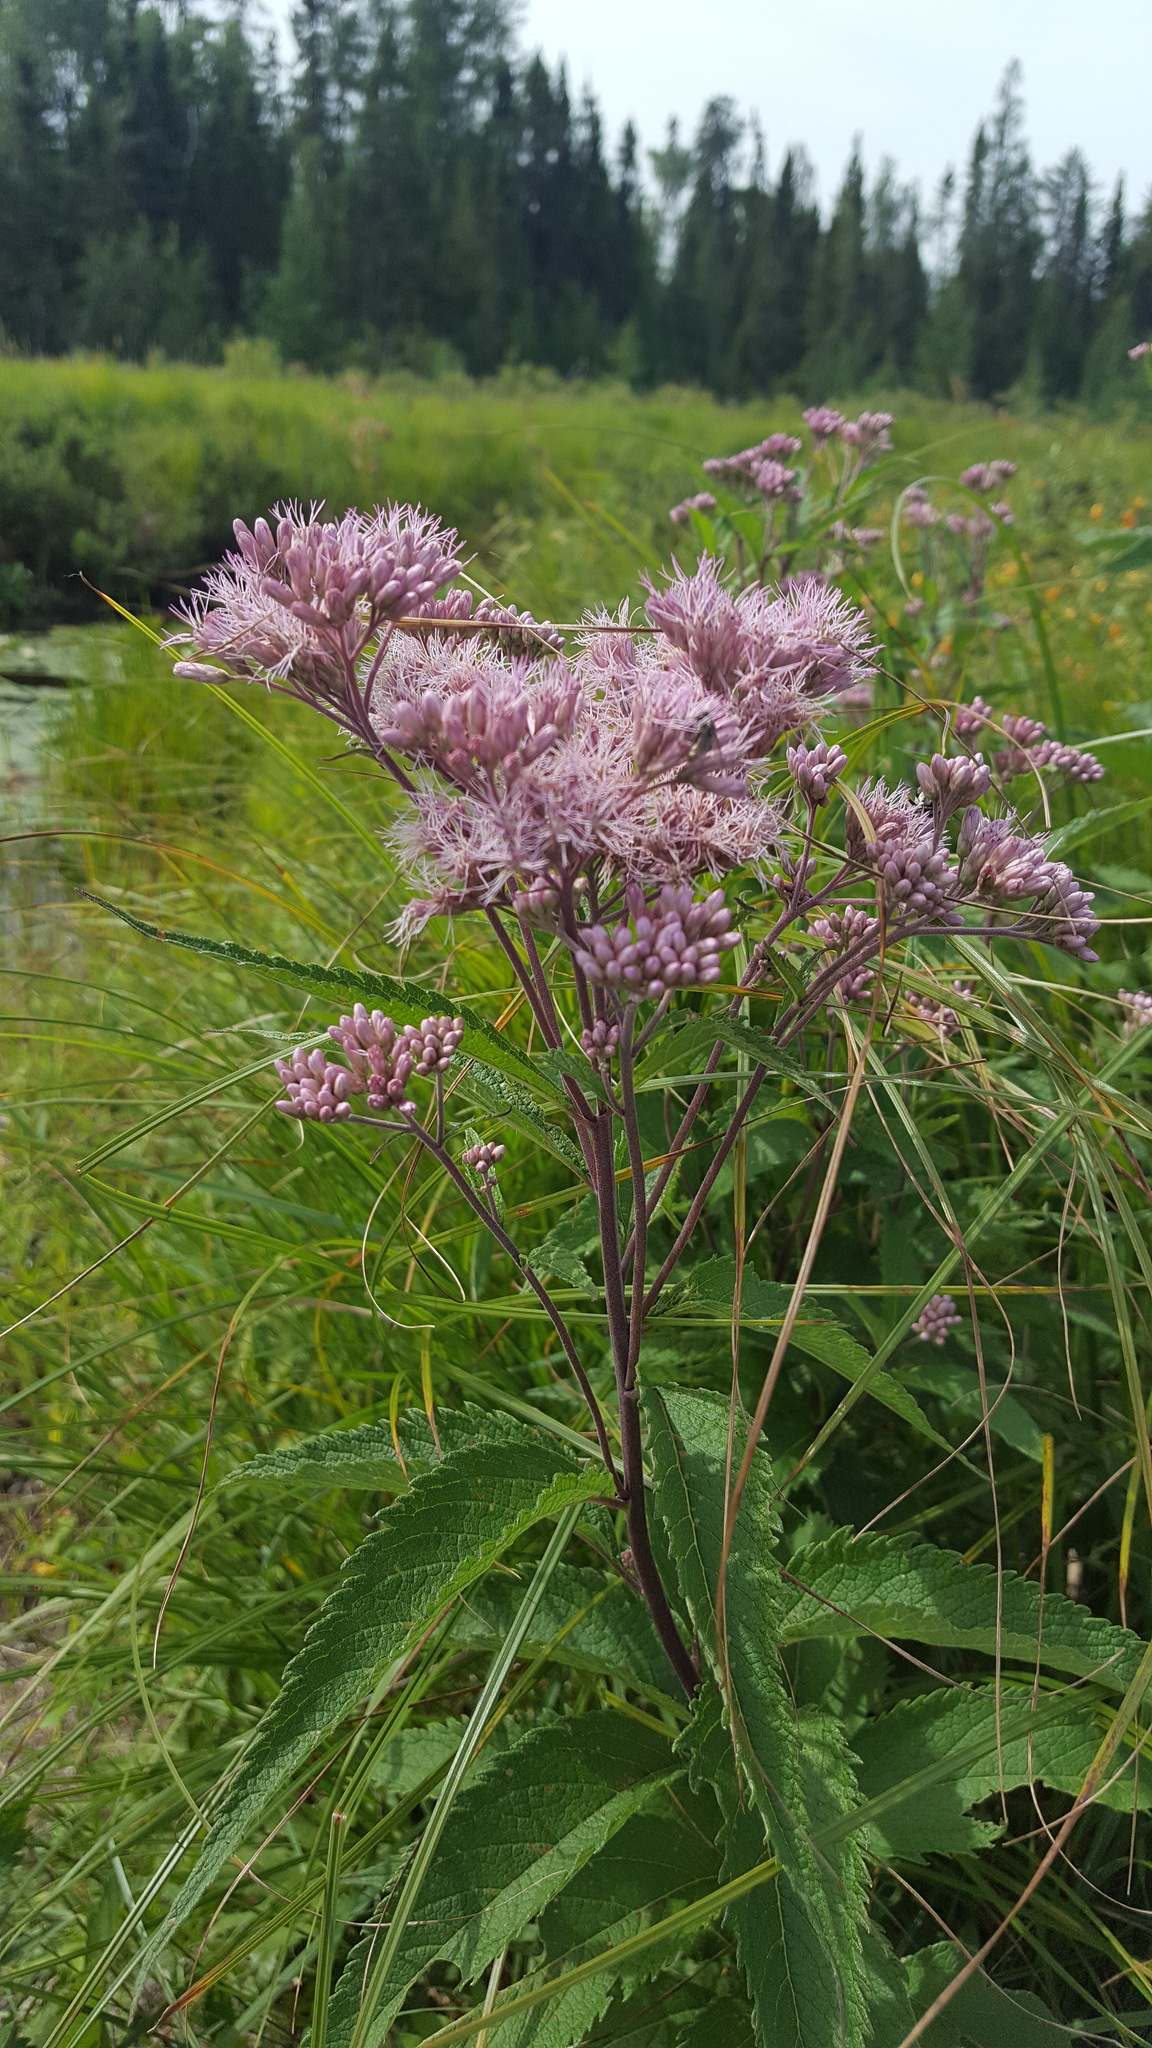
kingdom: Plantae
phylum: Tracheophyta
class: Magnoliopsida
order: Asterales
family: Asteraceae
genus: Eutrochium
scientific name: Eutrochium maculatum
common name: Spotted joe pye weed
